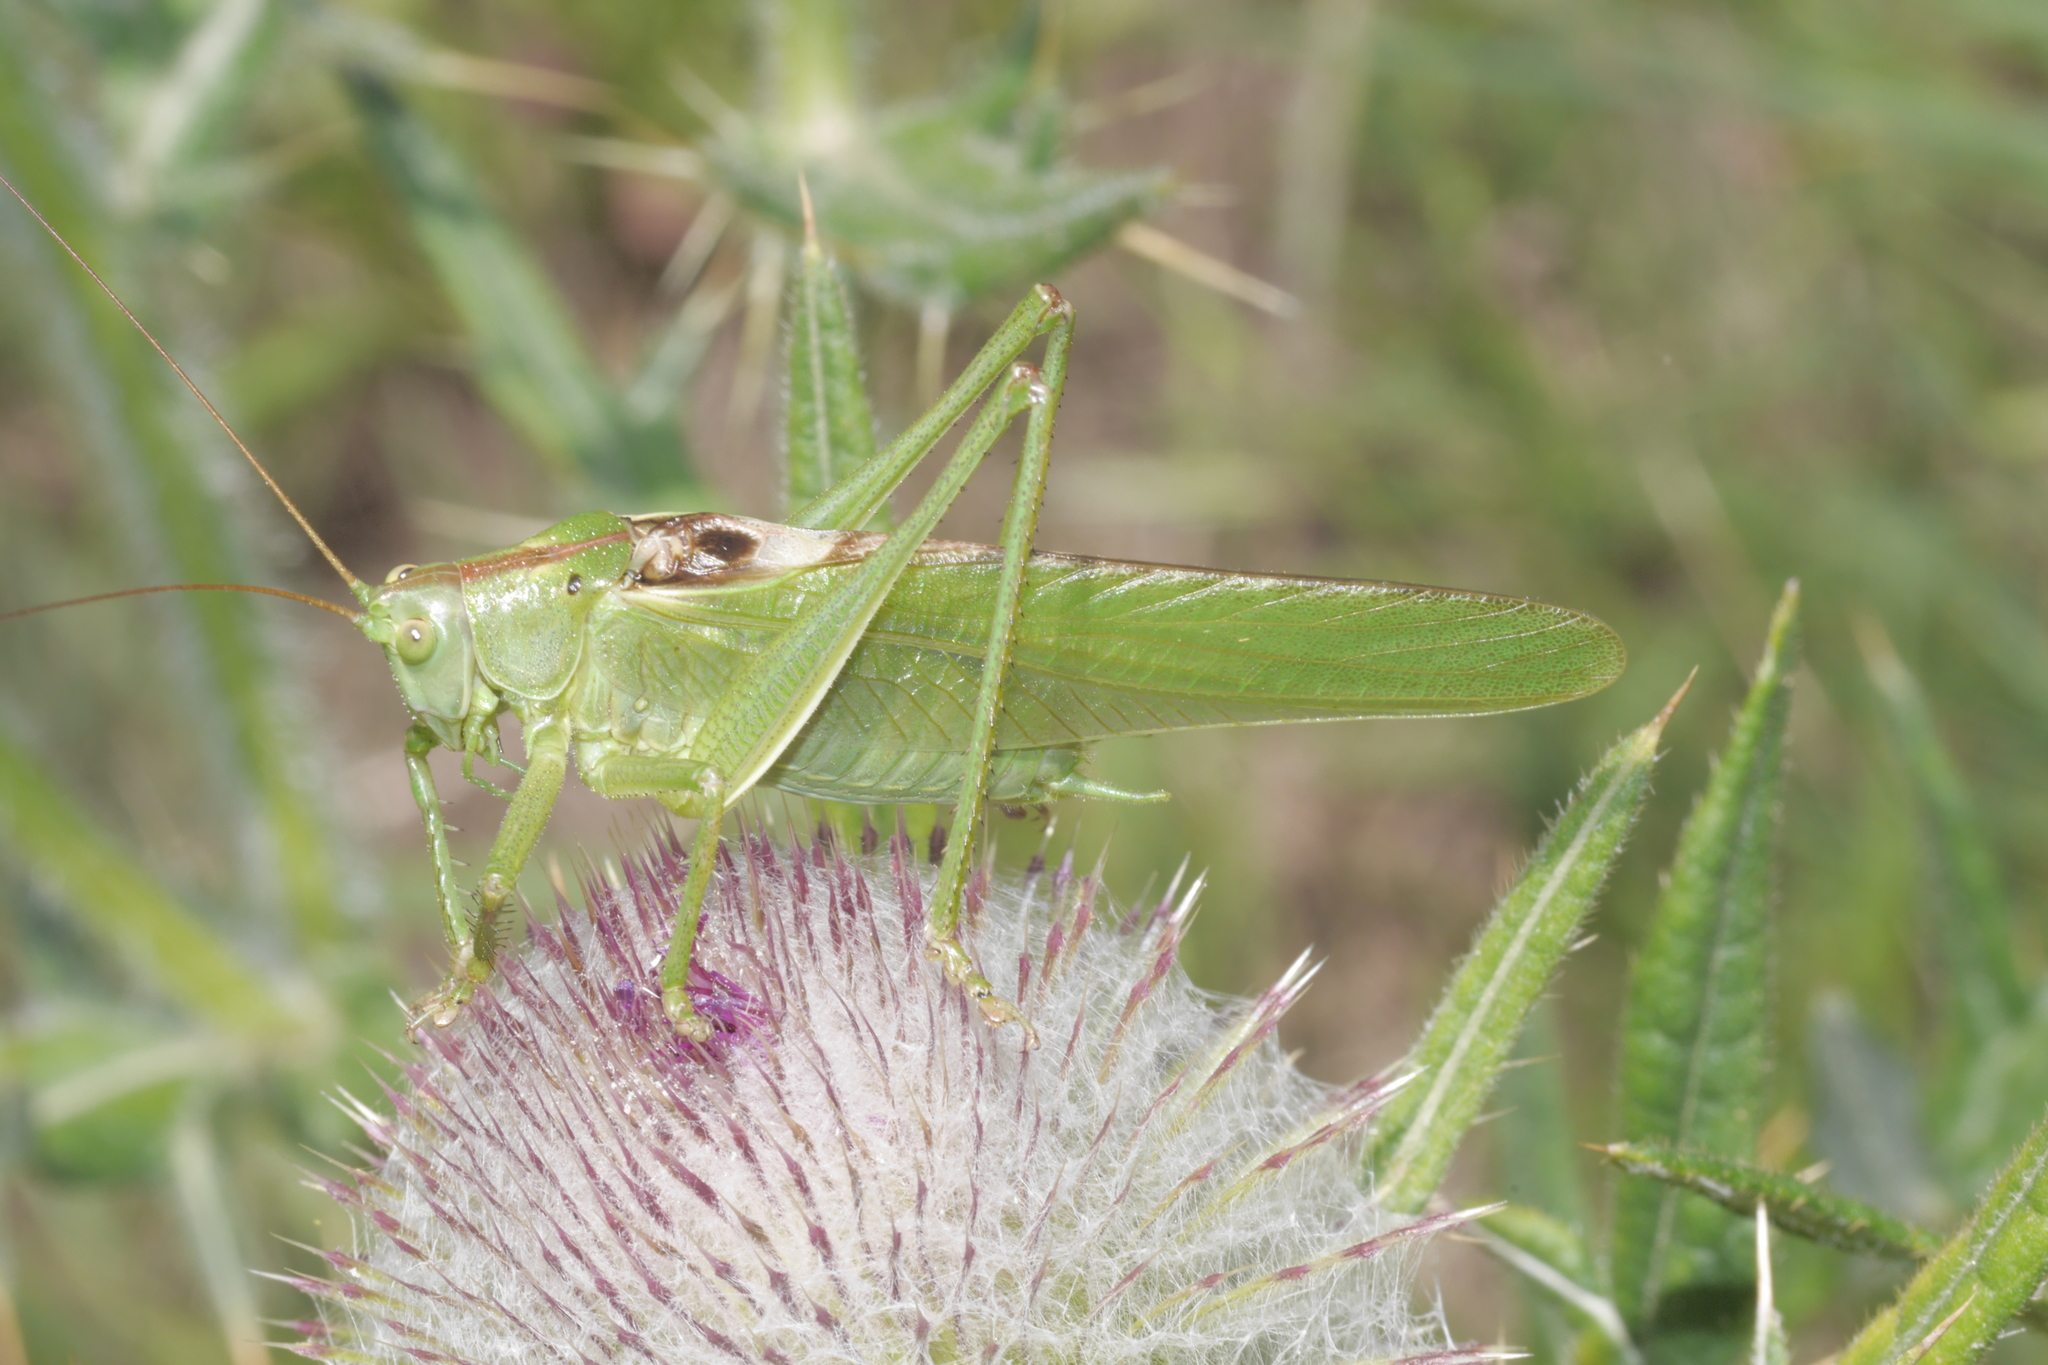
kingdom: Animalia
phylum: Arthropoda
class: Insecta
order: Orthoptera
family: Tettigoniidae
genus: Tettigonia
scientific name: Tettigonia viridissima
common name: Great green bush-cricket
